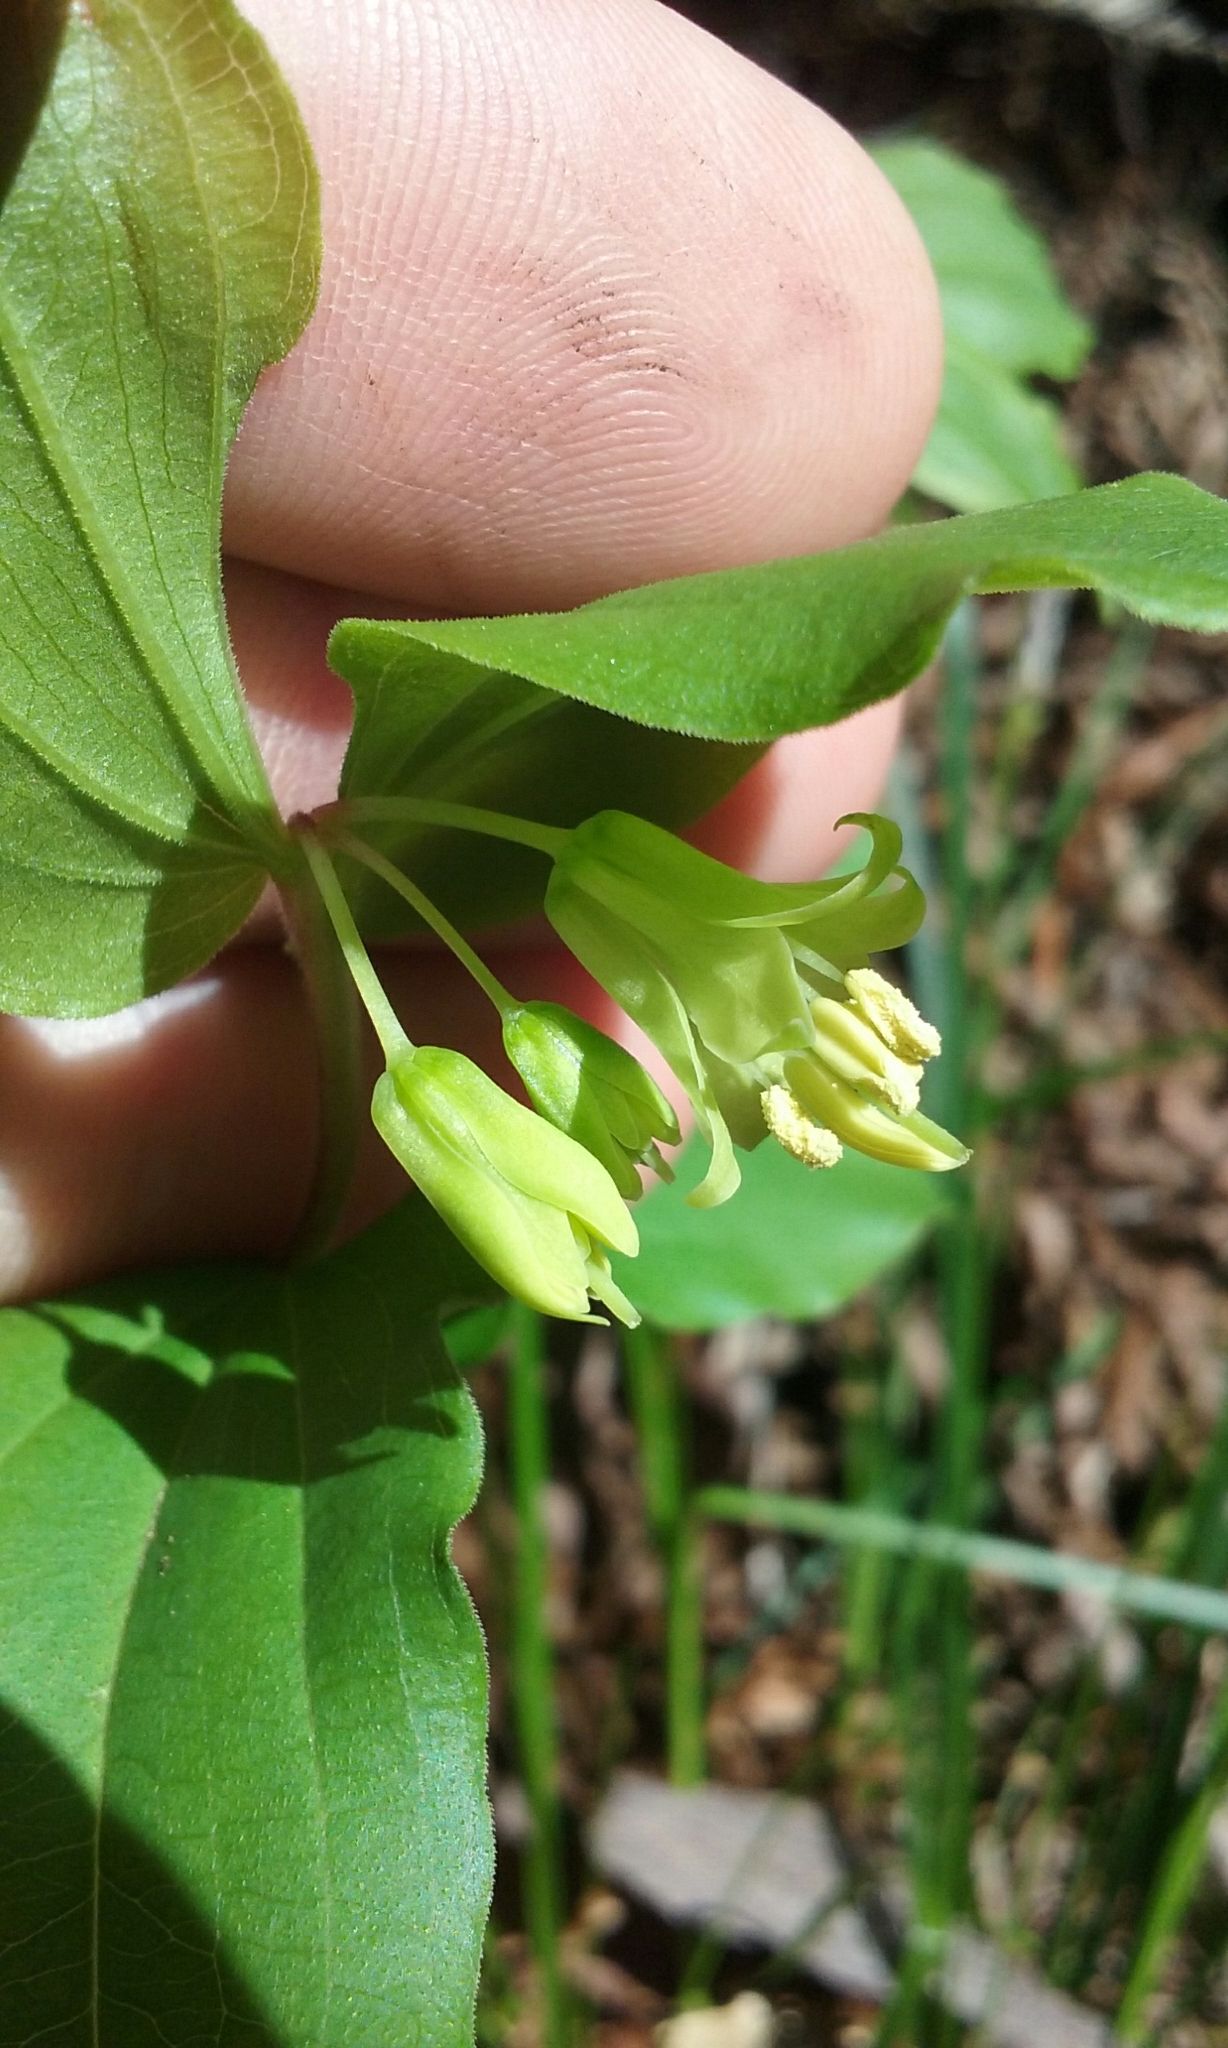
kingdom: Plantae
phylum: Tracheophyta
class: Liliopsida
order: Liliales
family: Liliaceae
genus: Prosartes
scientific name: Prosartes hookeri
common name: Fairy-bells
